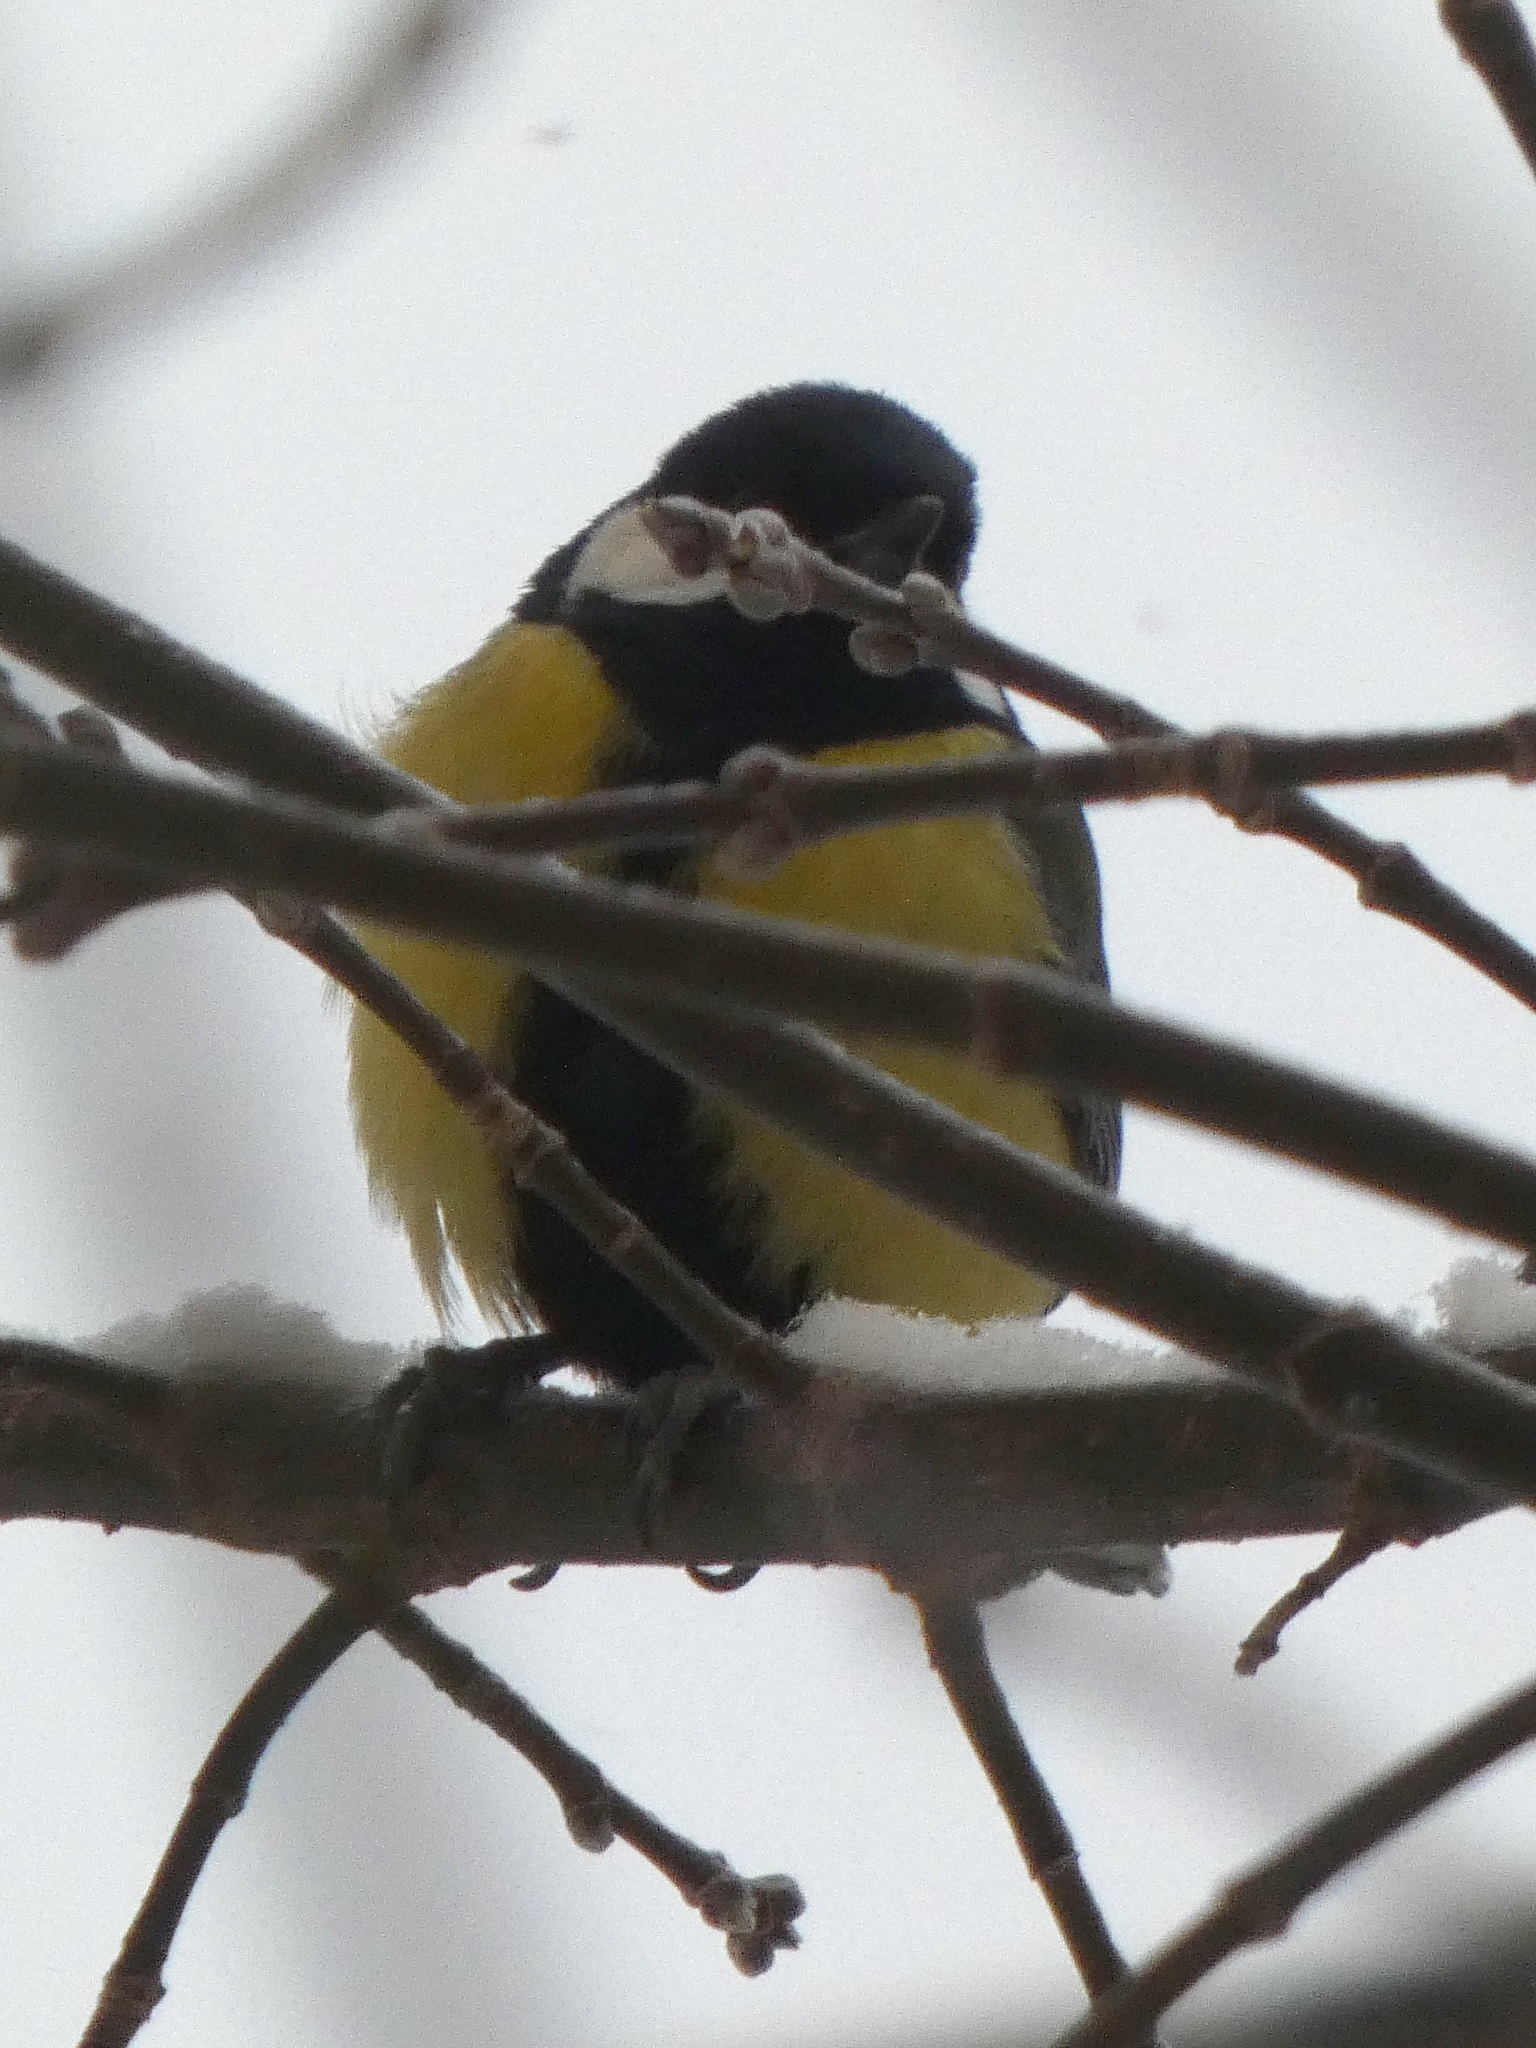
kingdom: Animalia
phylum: Chordata
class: Aves
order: Passeriformes
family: Paridae
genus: Parus
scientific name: Parus major
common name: Great tit
